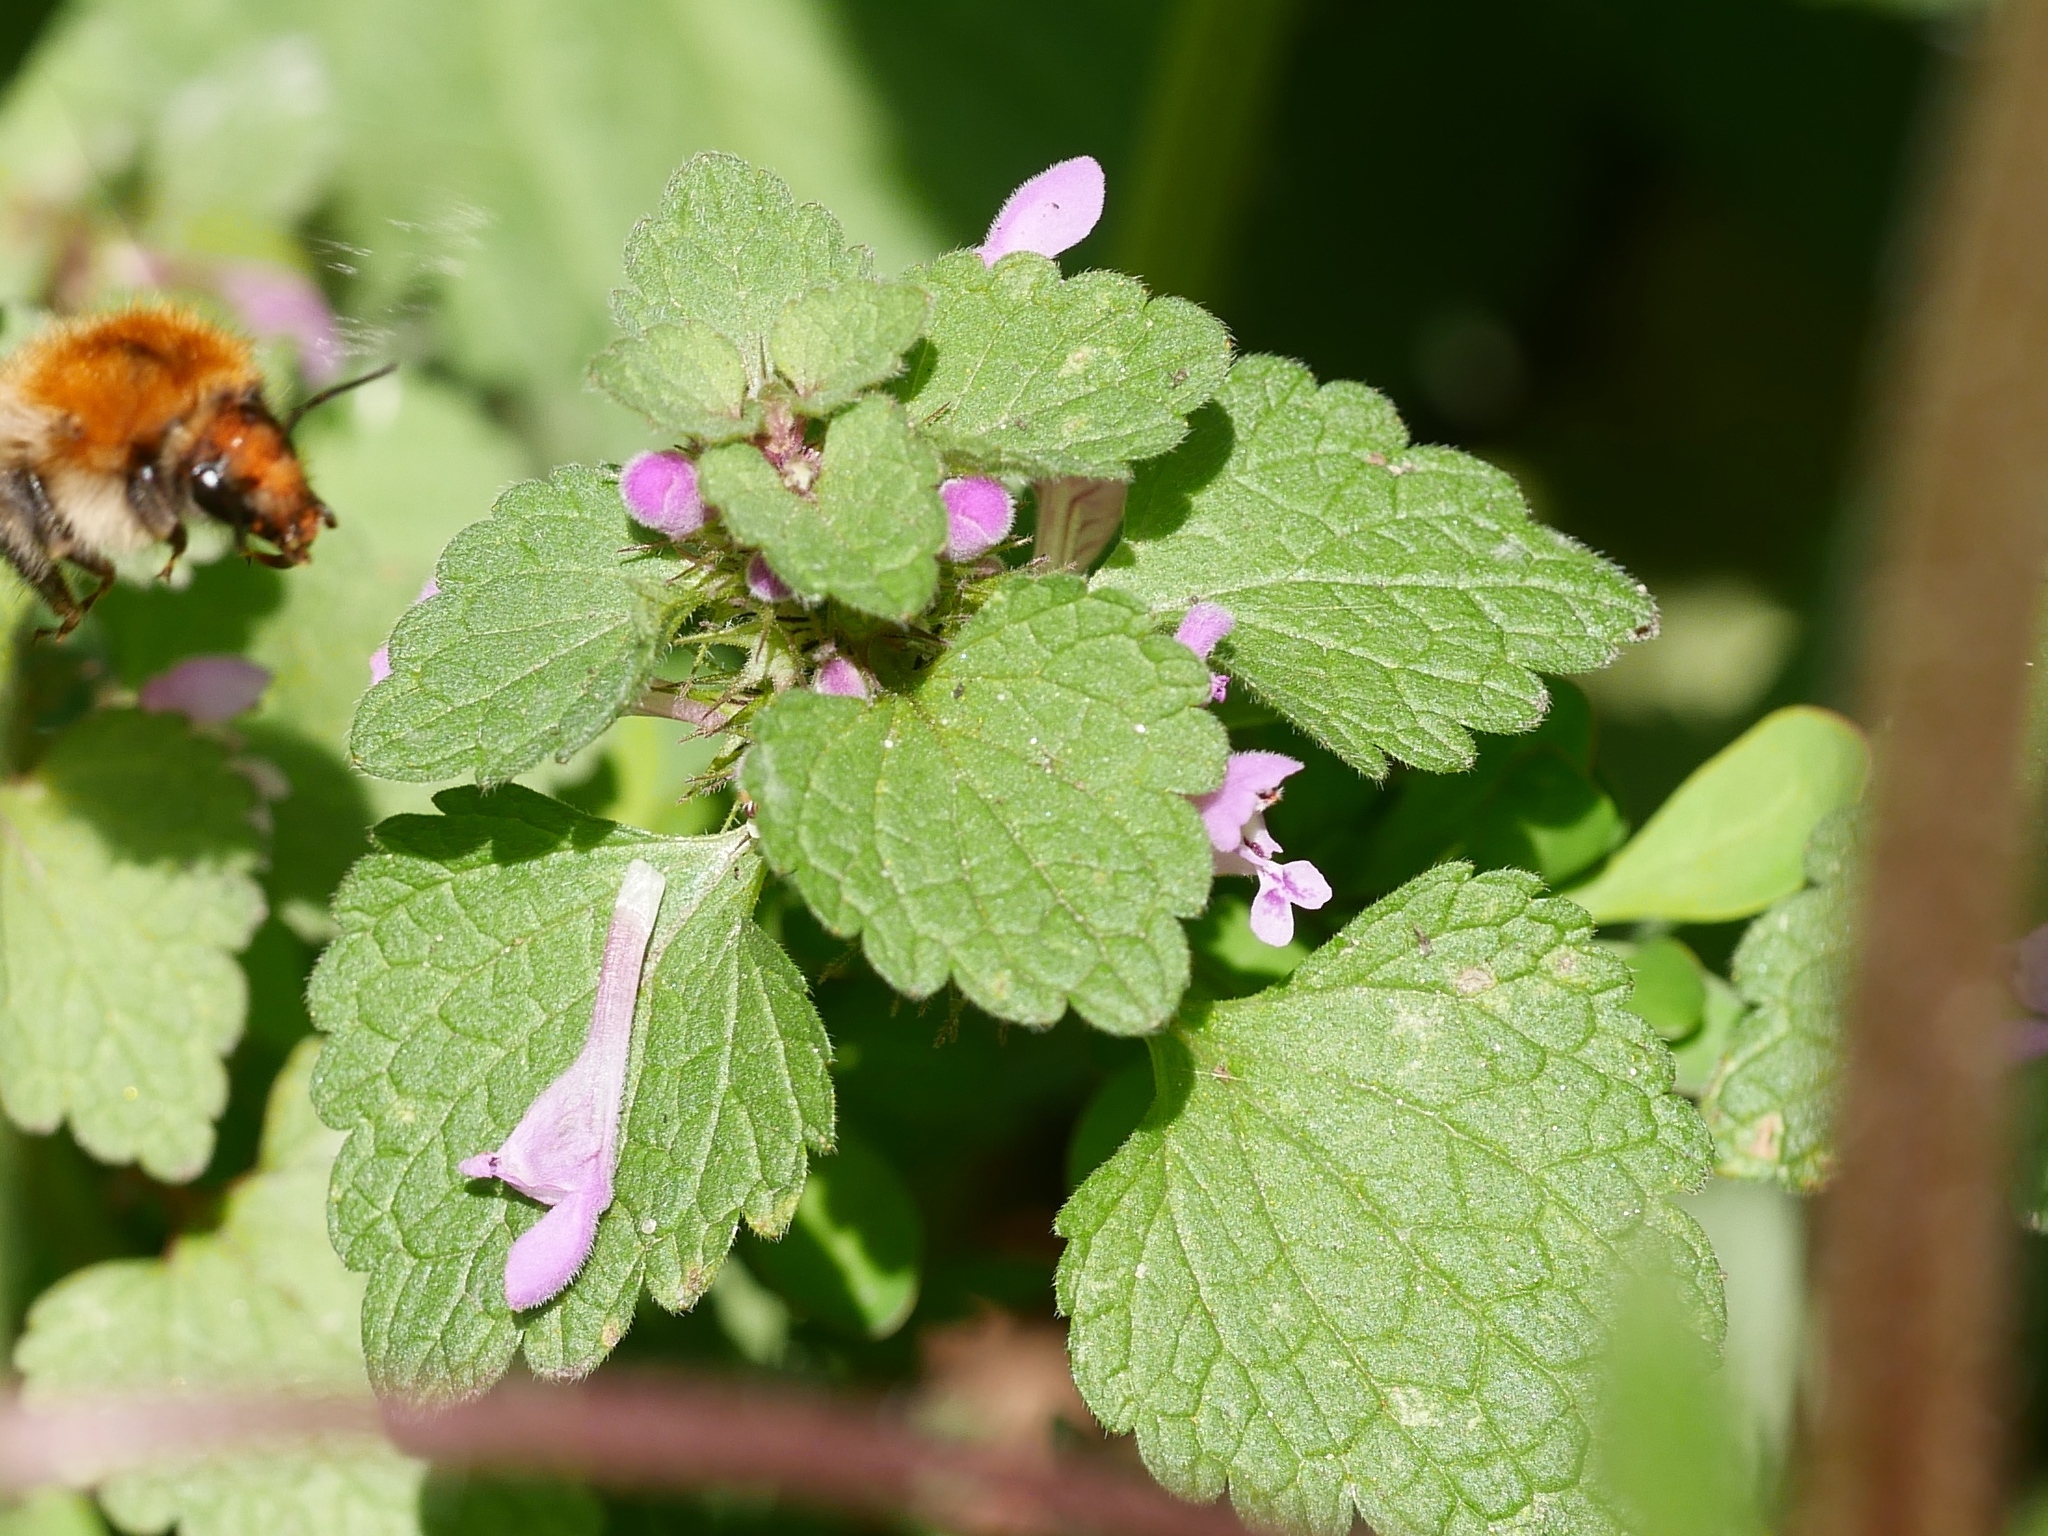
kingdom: Plantae
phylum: Tracheophyta
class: Magnoliopsida
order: Lamiales
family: Lamiaceae
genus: Lamium
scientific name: Lamium purpureum
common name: Red dead-nettle
